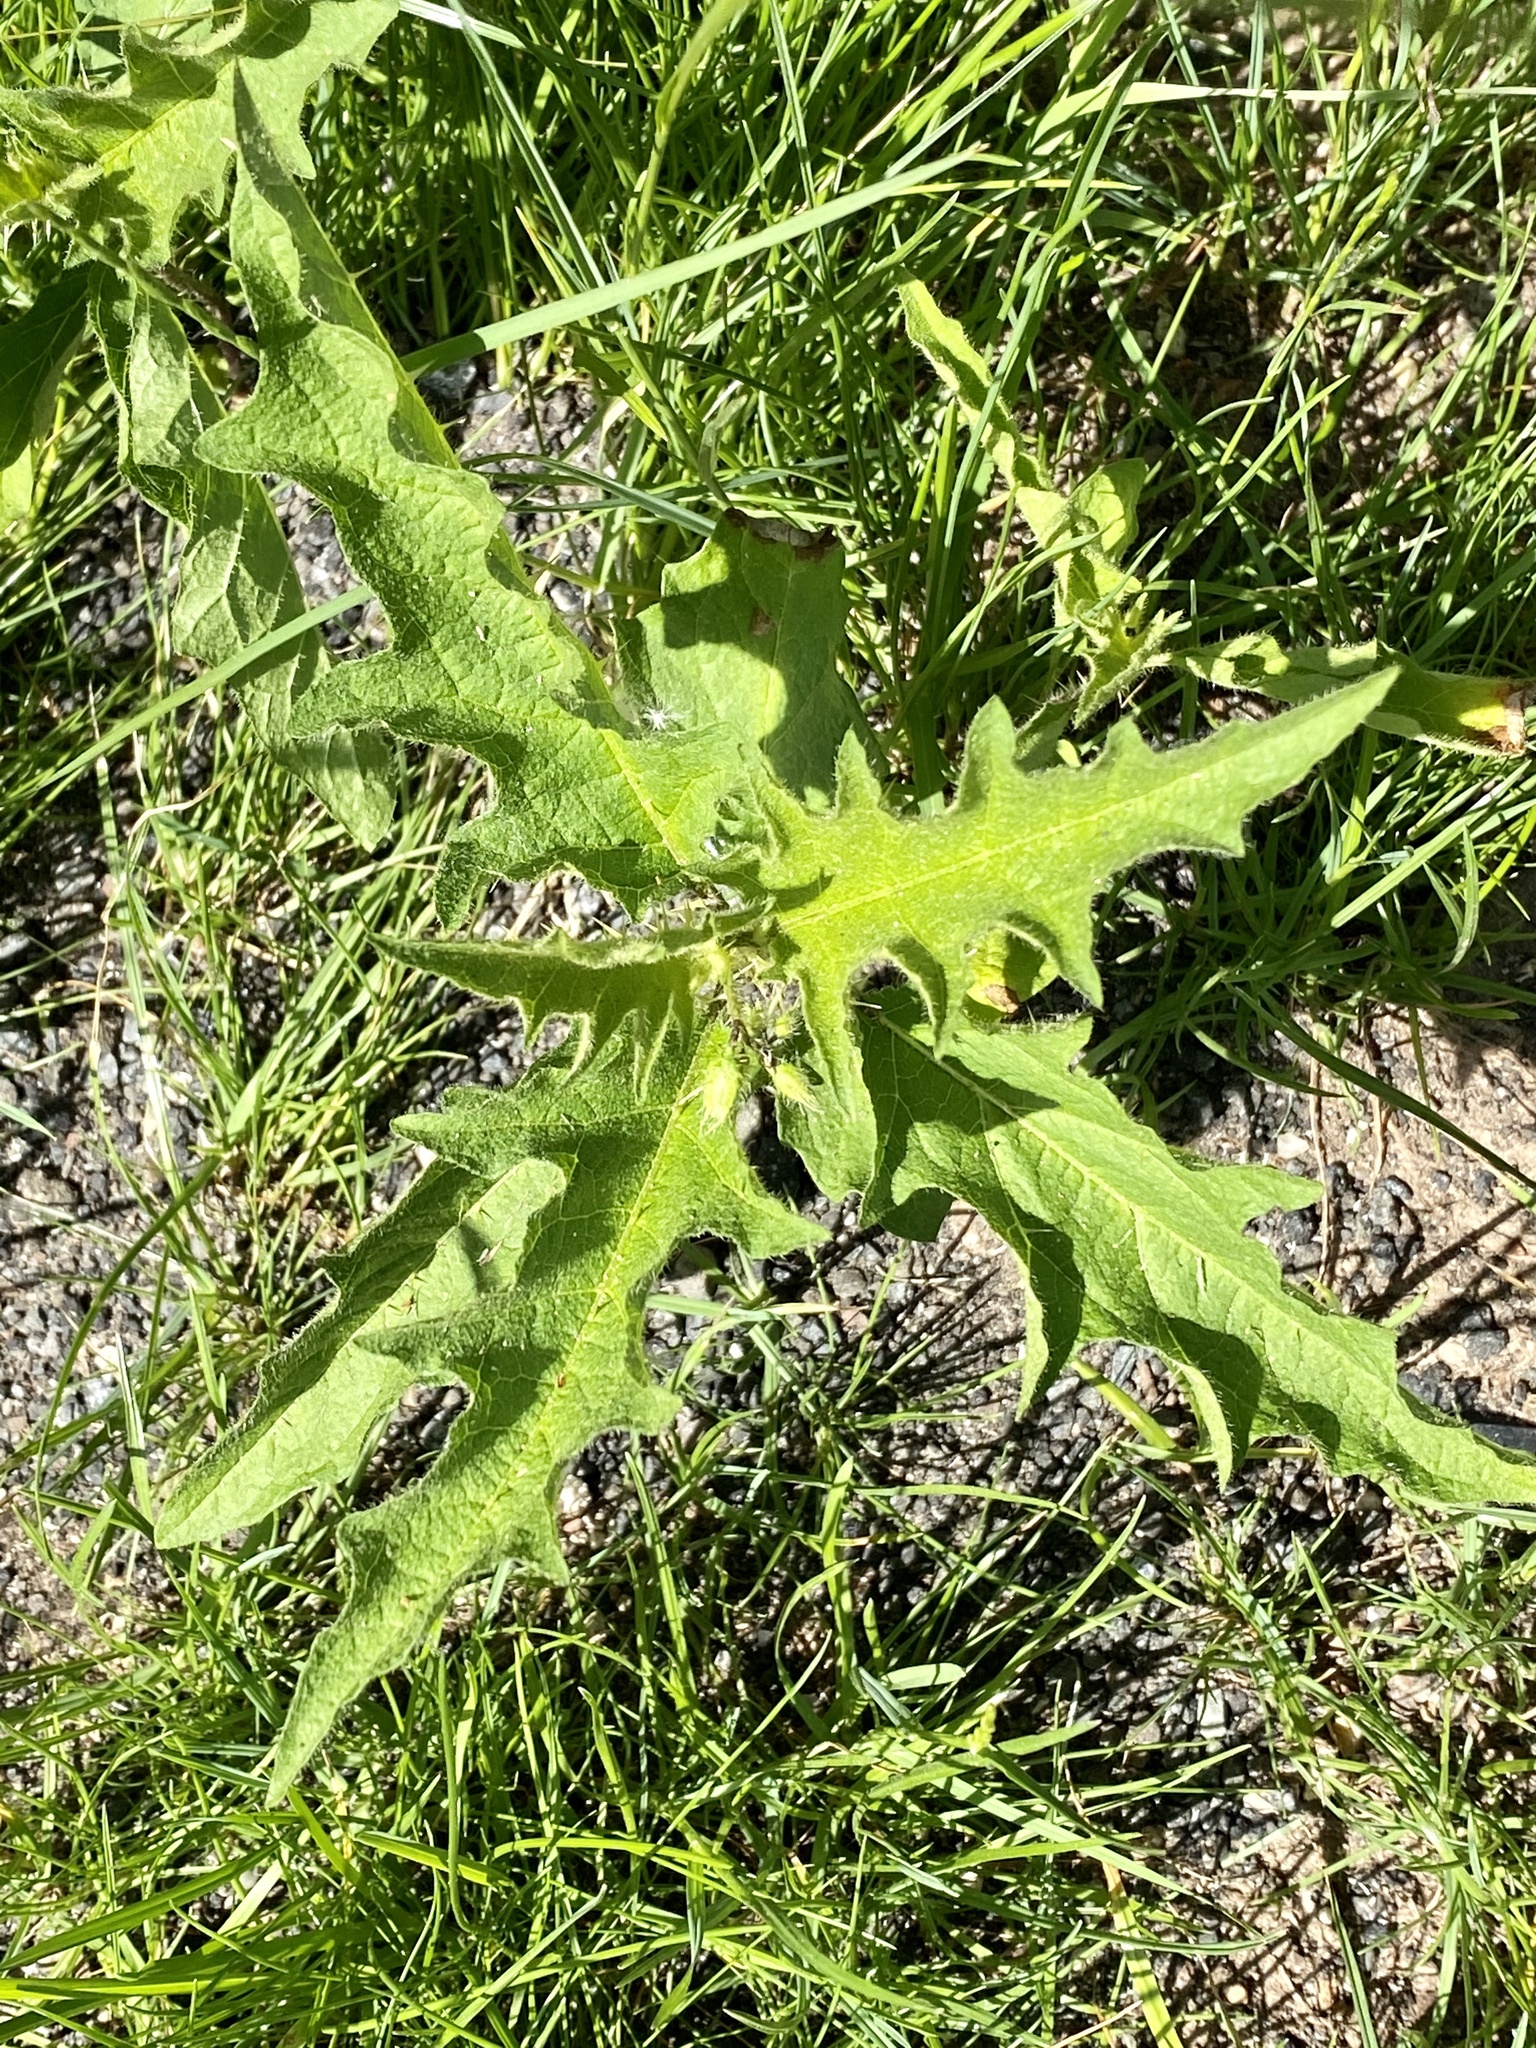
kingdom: Plantae
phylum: Tracheophyta
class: Magnoliopsida
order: Solanales
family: Solanaceae
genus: Solanum
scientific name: Solanum carolinense
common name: Horse-nettle
